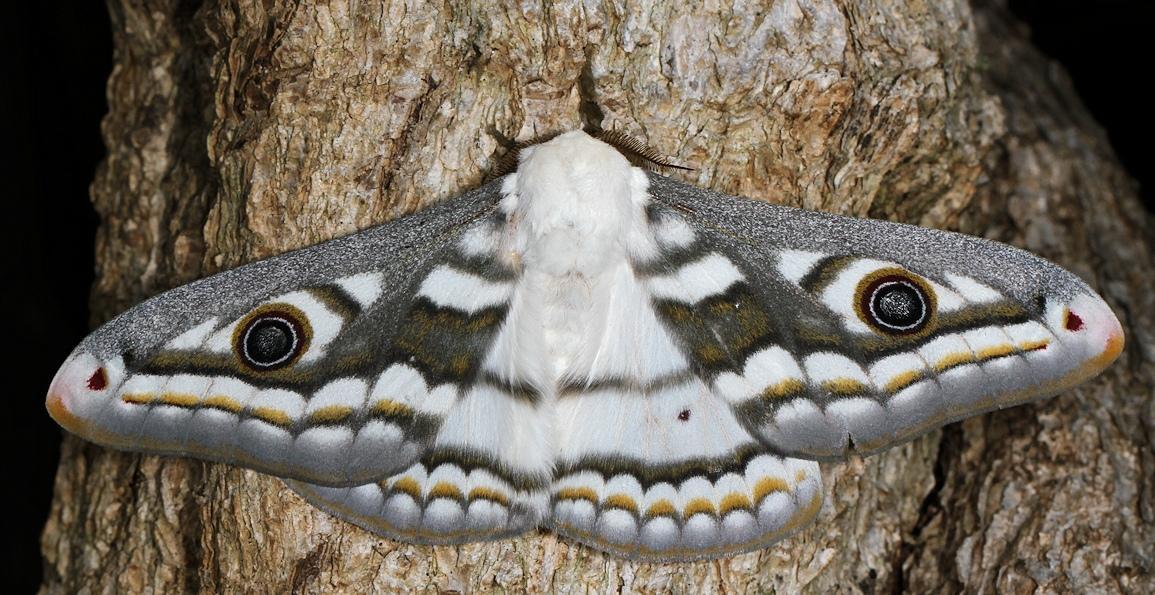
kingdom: Animalia
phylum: Arthropoda
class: Insecta
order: Lepidoptera
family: Saturniidae
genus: Heniocha
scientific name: Heniocha dyops
